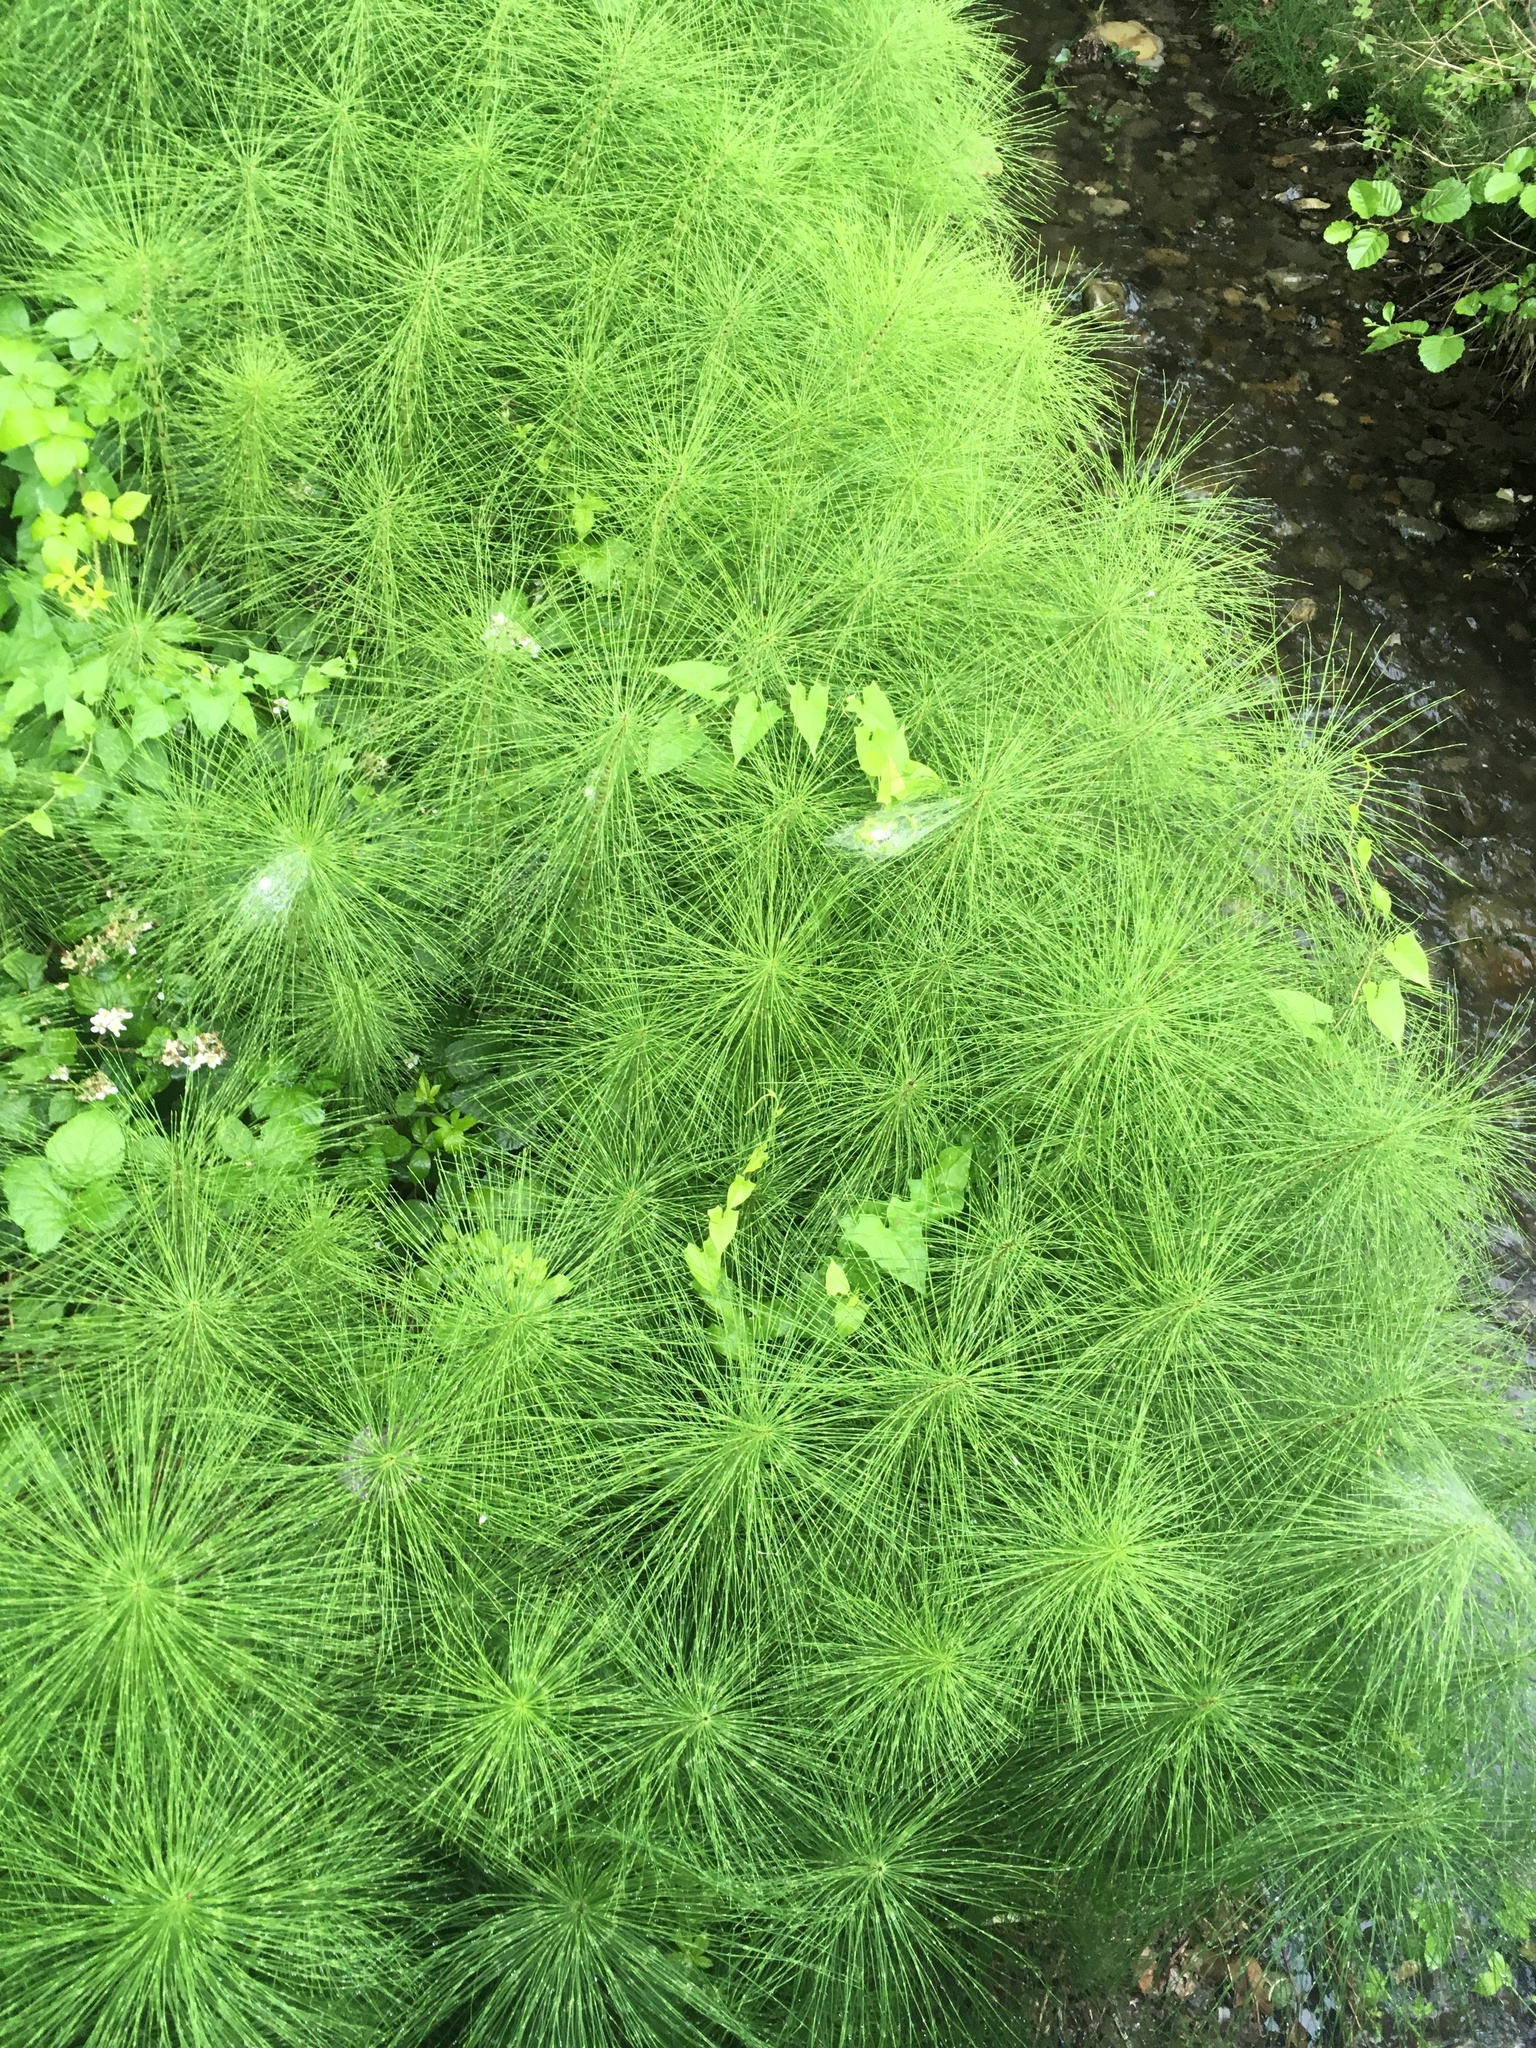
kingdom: Plantae
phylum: Tracheophyta
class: Polypodiopsida
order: Equisetales
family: Equisetaceae
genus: Equisetum
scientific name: Equisetum telmateia
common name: Great horsetail
